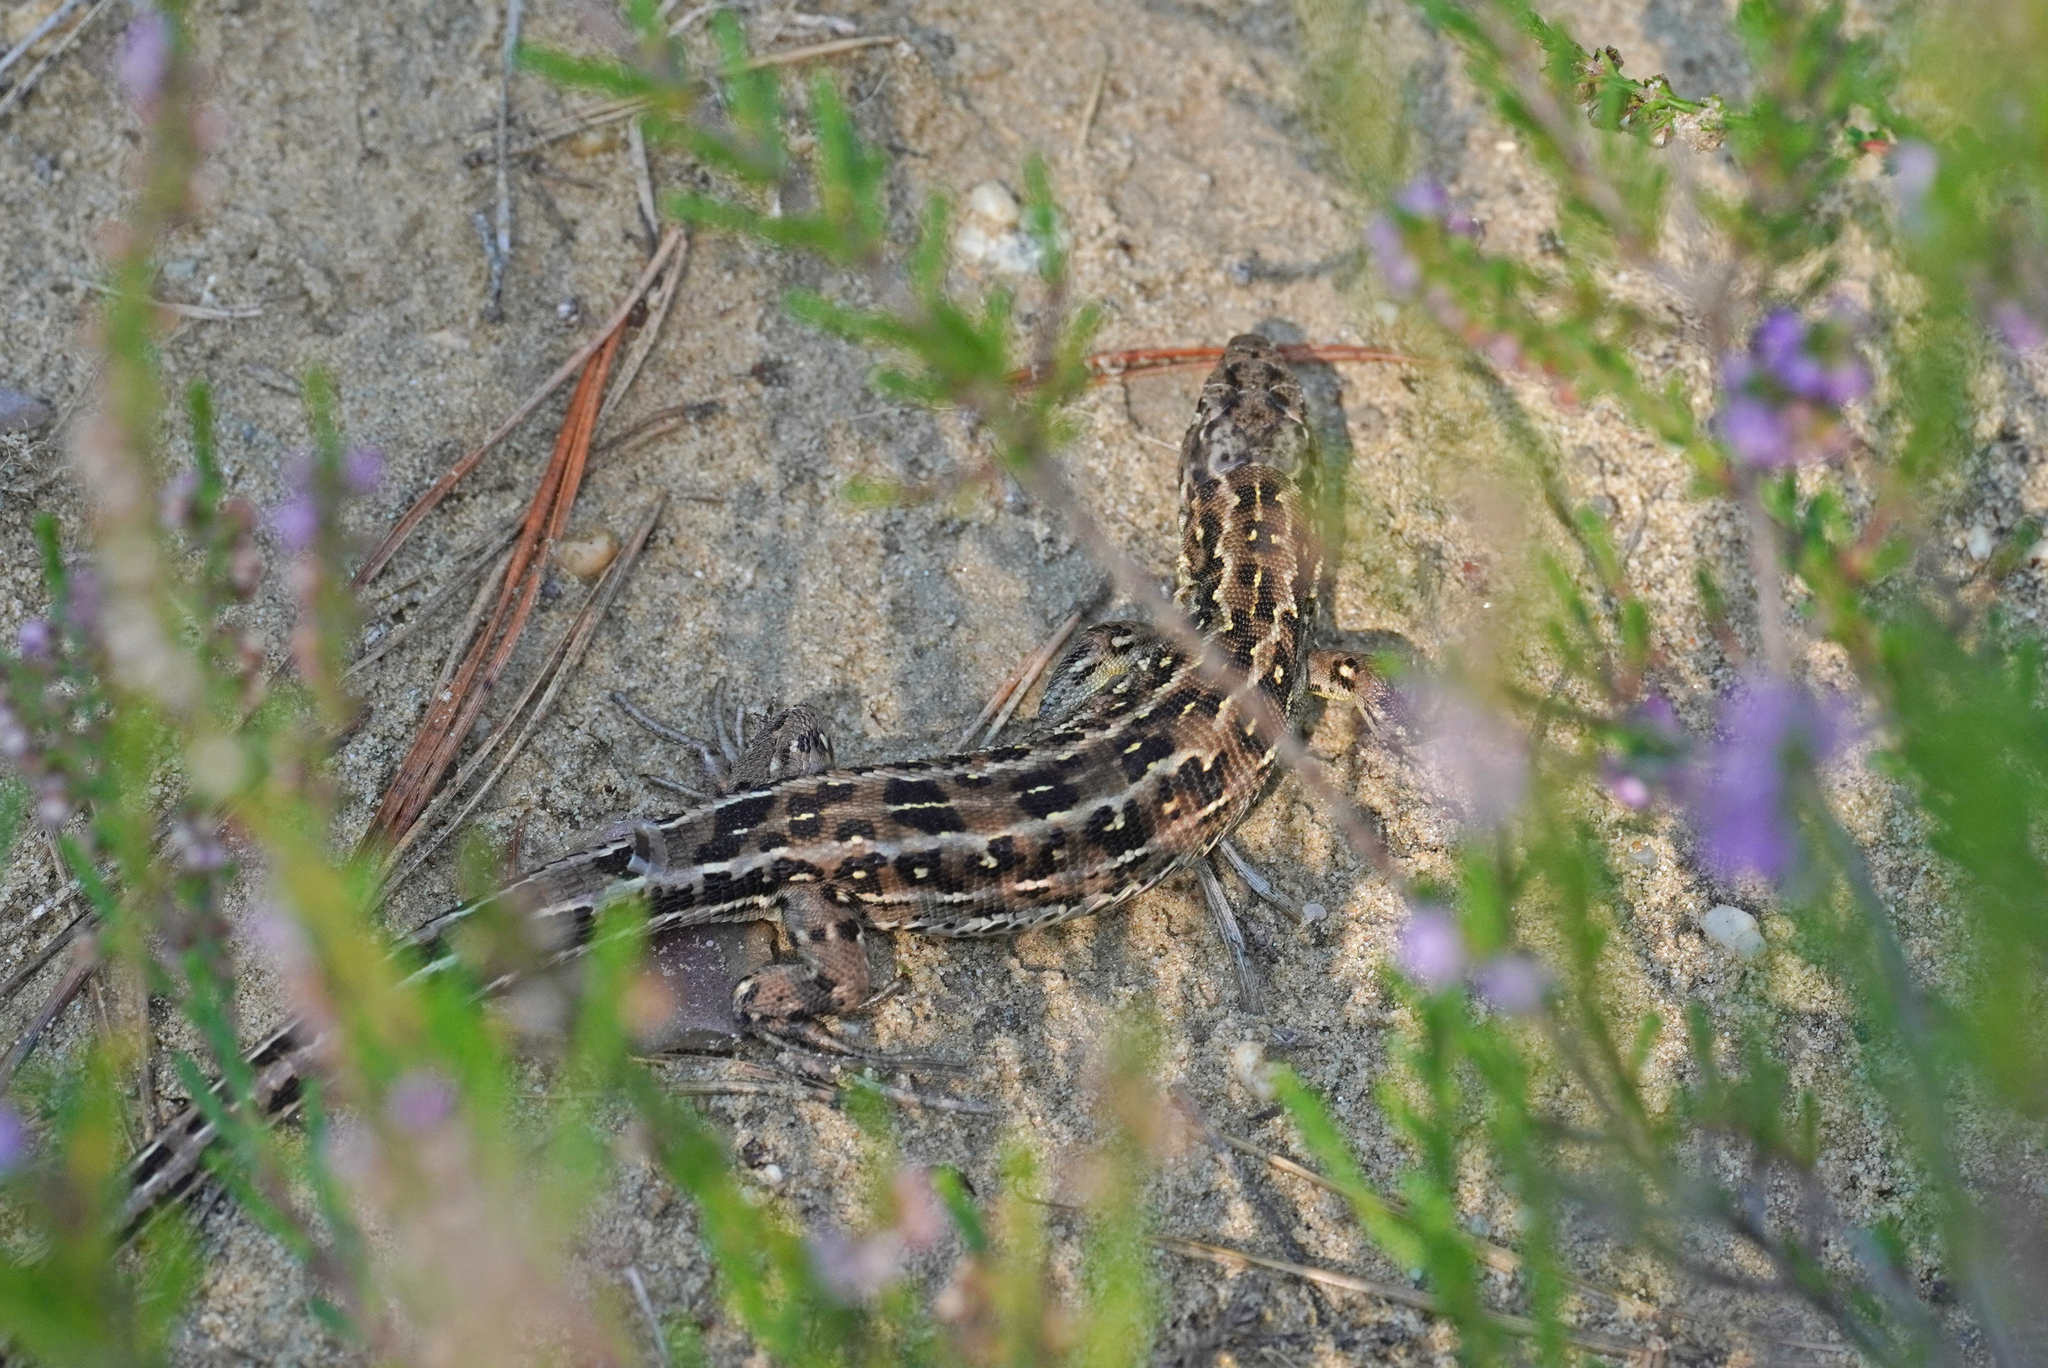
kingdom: Animalia
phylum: Chordata
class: Squamata
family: Lacertidae
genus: Lacerta
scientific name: Lacerta agilis
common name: Sand lizard
